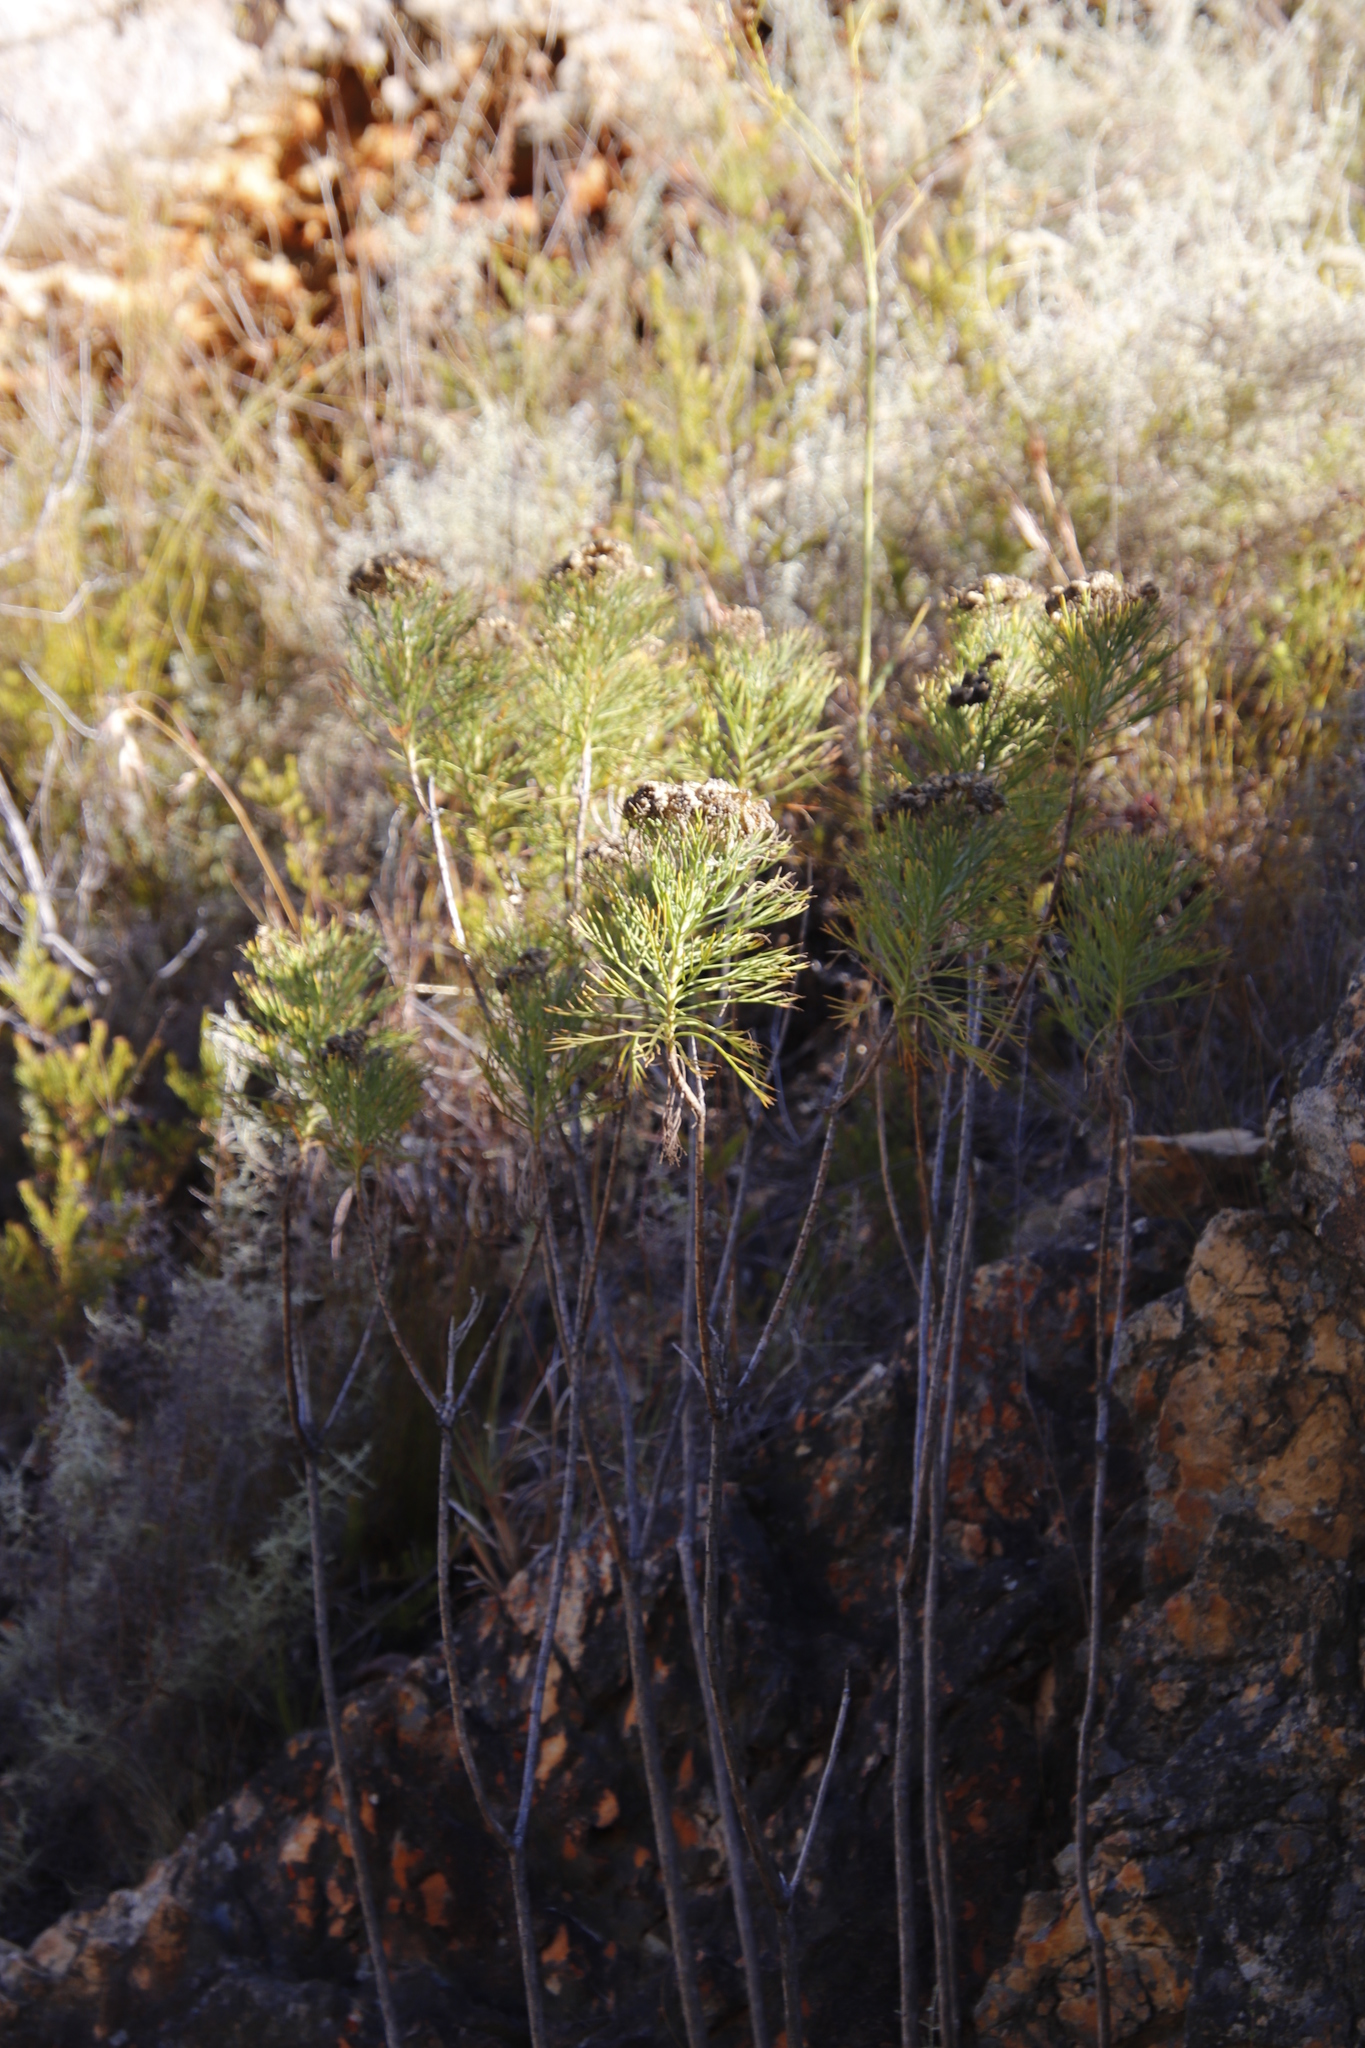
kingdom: Plantae
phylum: Tracheophyta
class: Magnoliopsida
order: Asterales
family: Asteraceae
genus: Hymenolepis
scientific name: Hymenolepis crithmifolia
